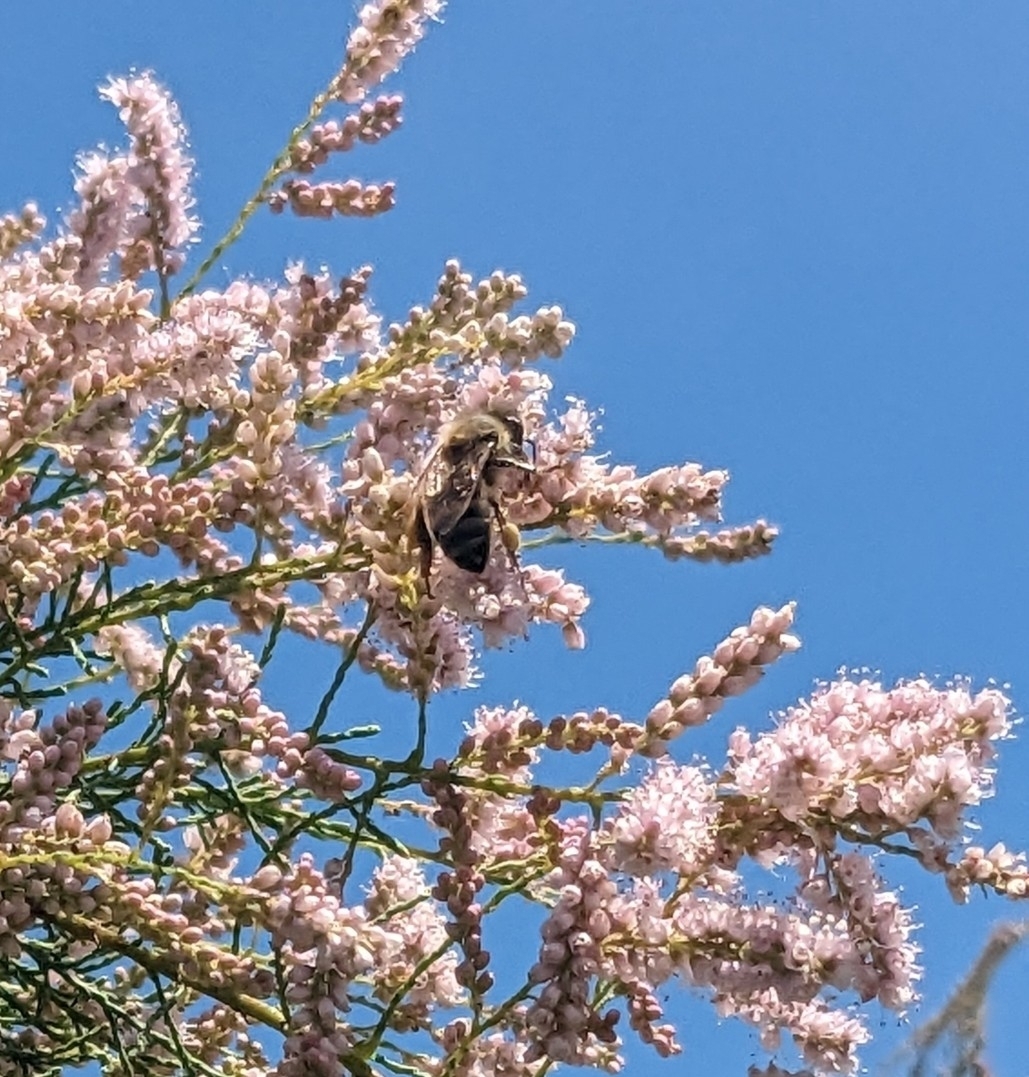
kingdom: Animalia
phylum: Arthropoda
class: Insecta
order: Hymenoptera
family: Apidae
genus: Apis
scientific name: Apis mellifera
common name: Honey bee
